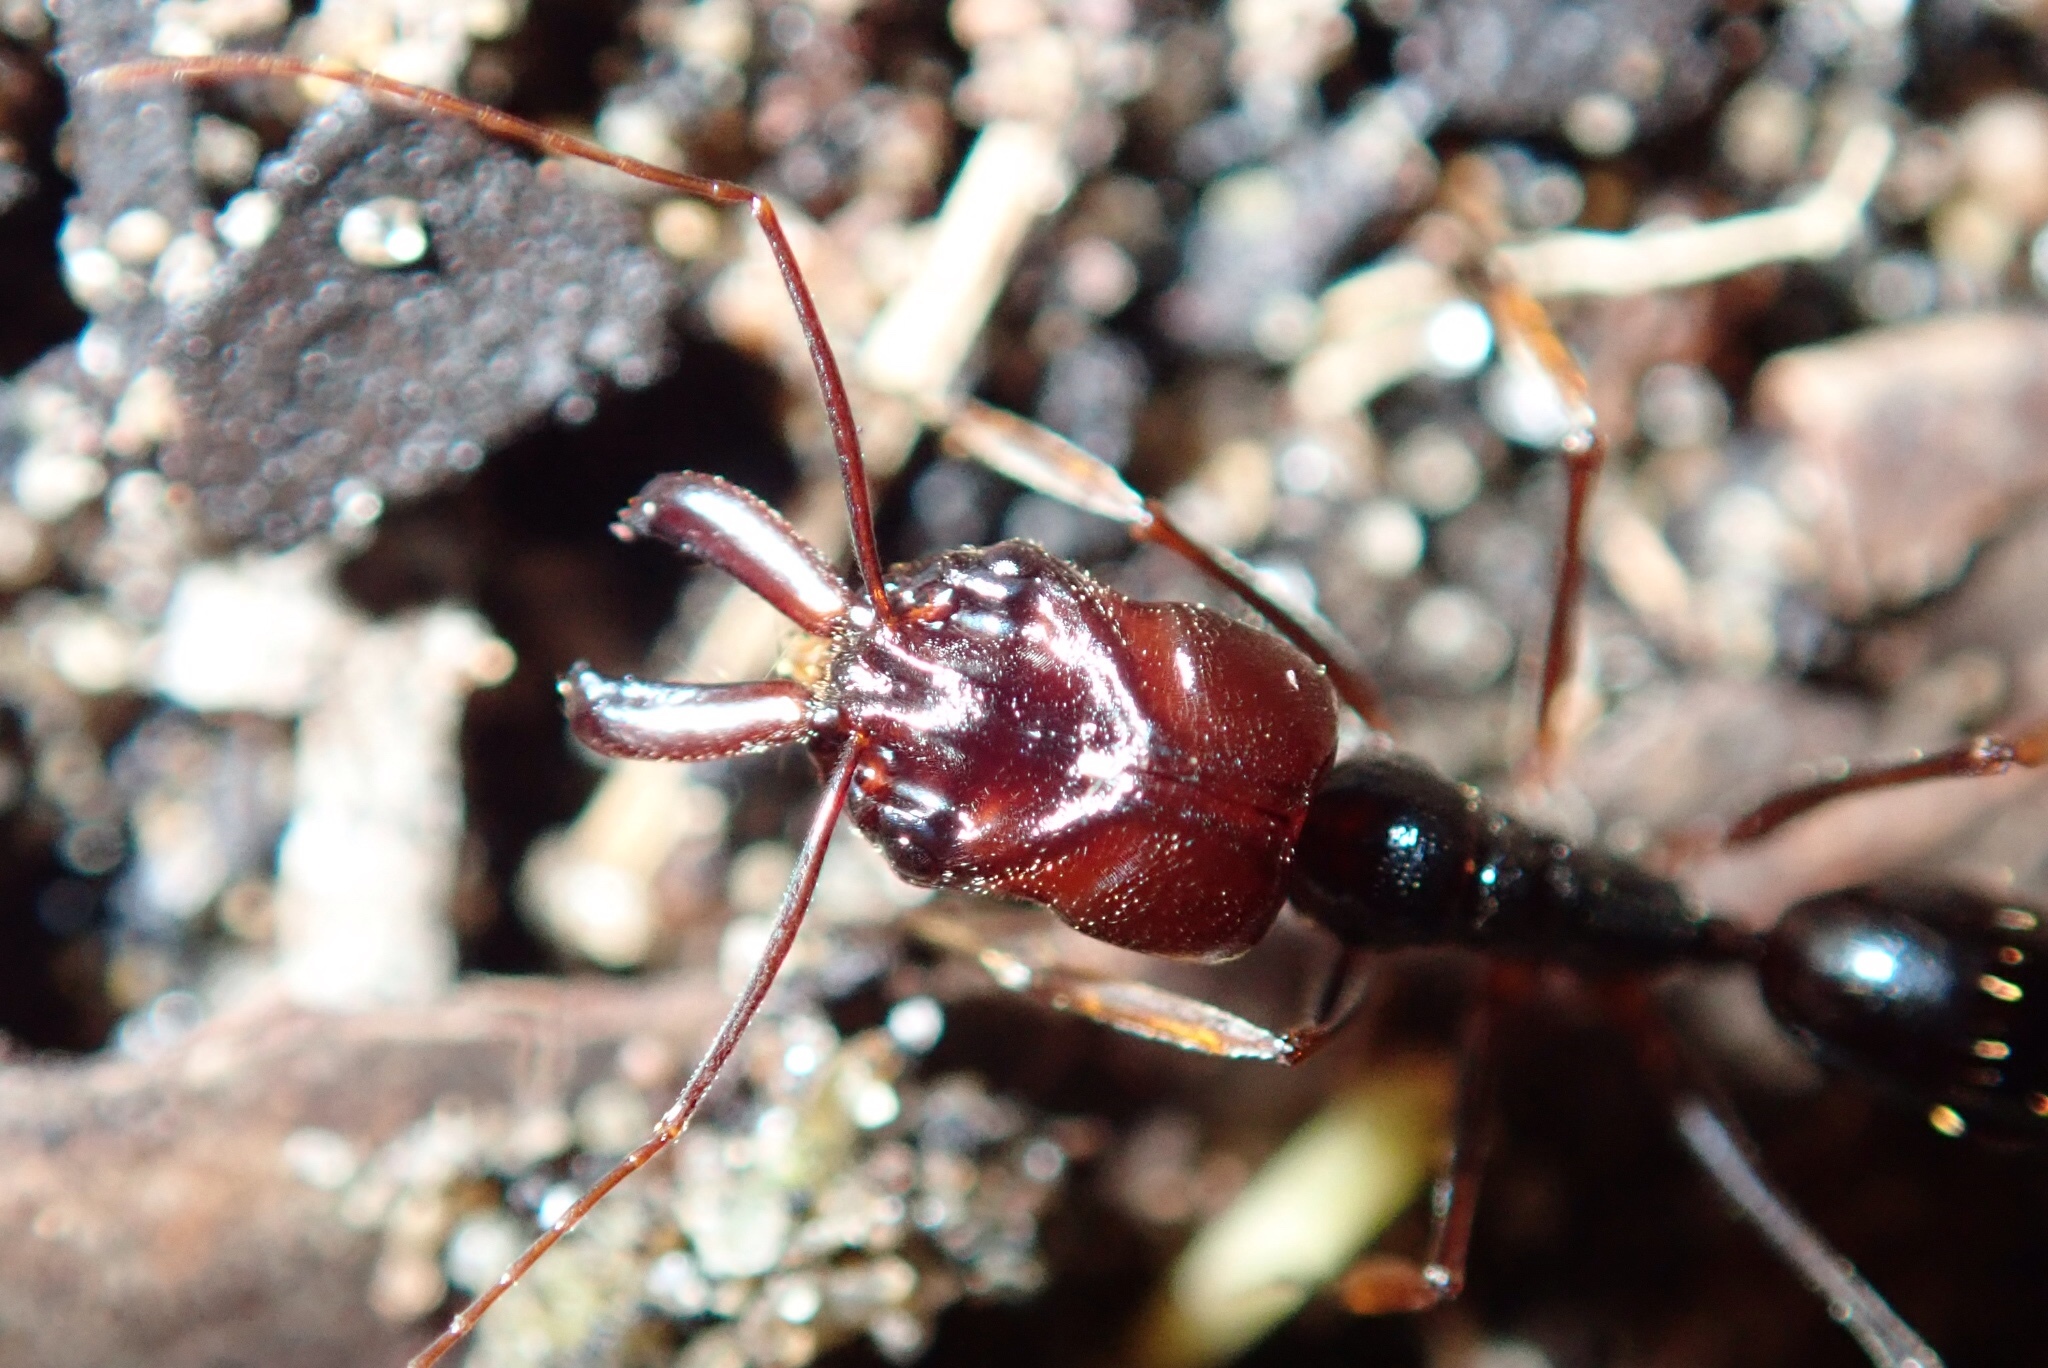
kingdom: Animalia
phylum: Arthropoda
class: Insecta
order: Hymenoptera
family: Formicidae
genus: Odontomachus
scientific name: Odontomachus assiniensis
